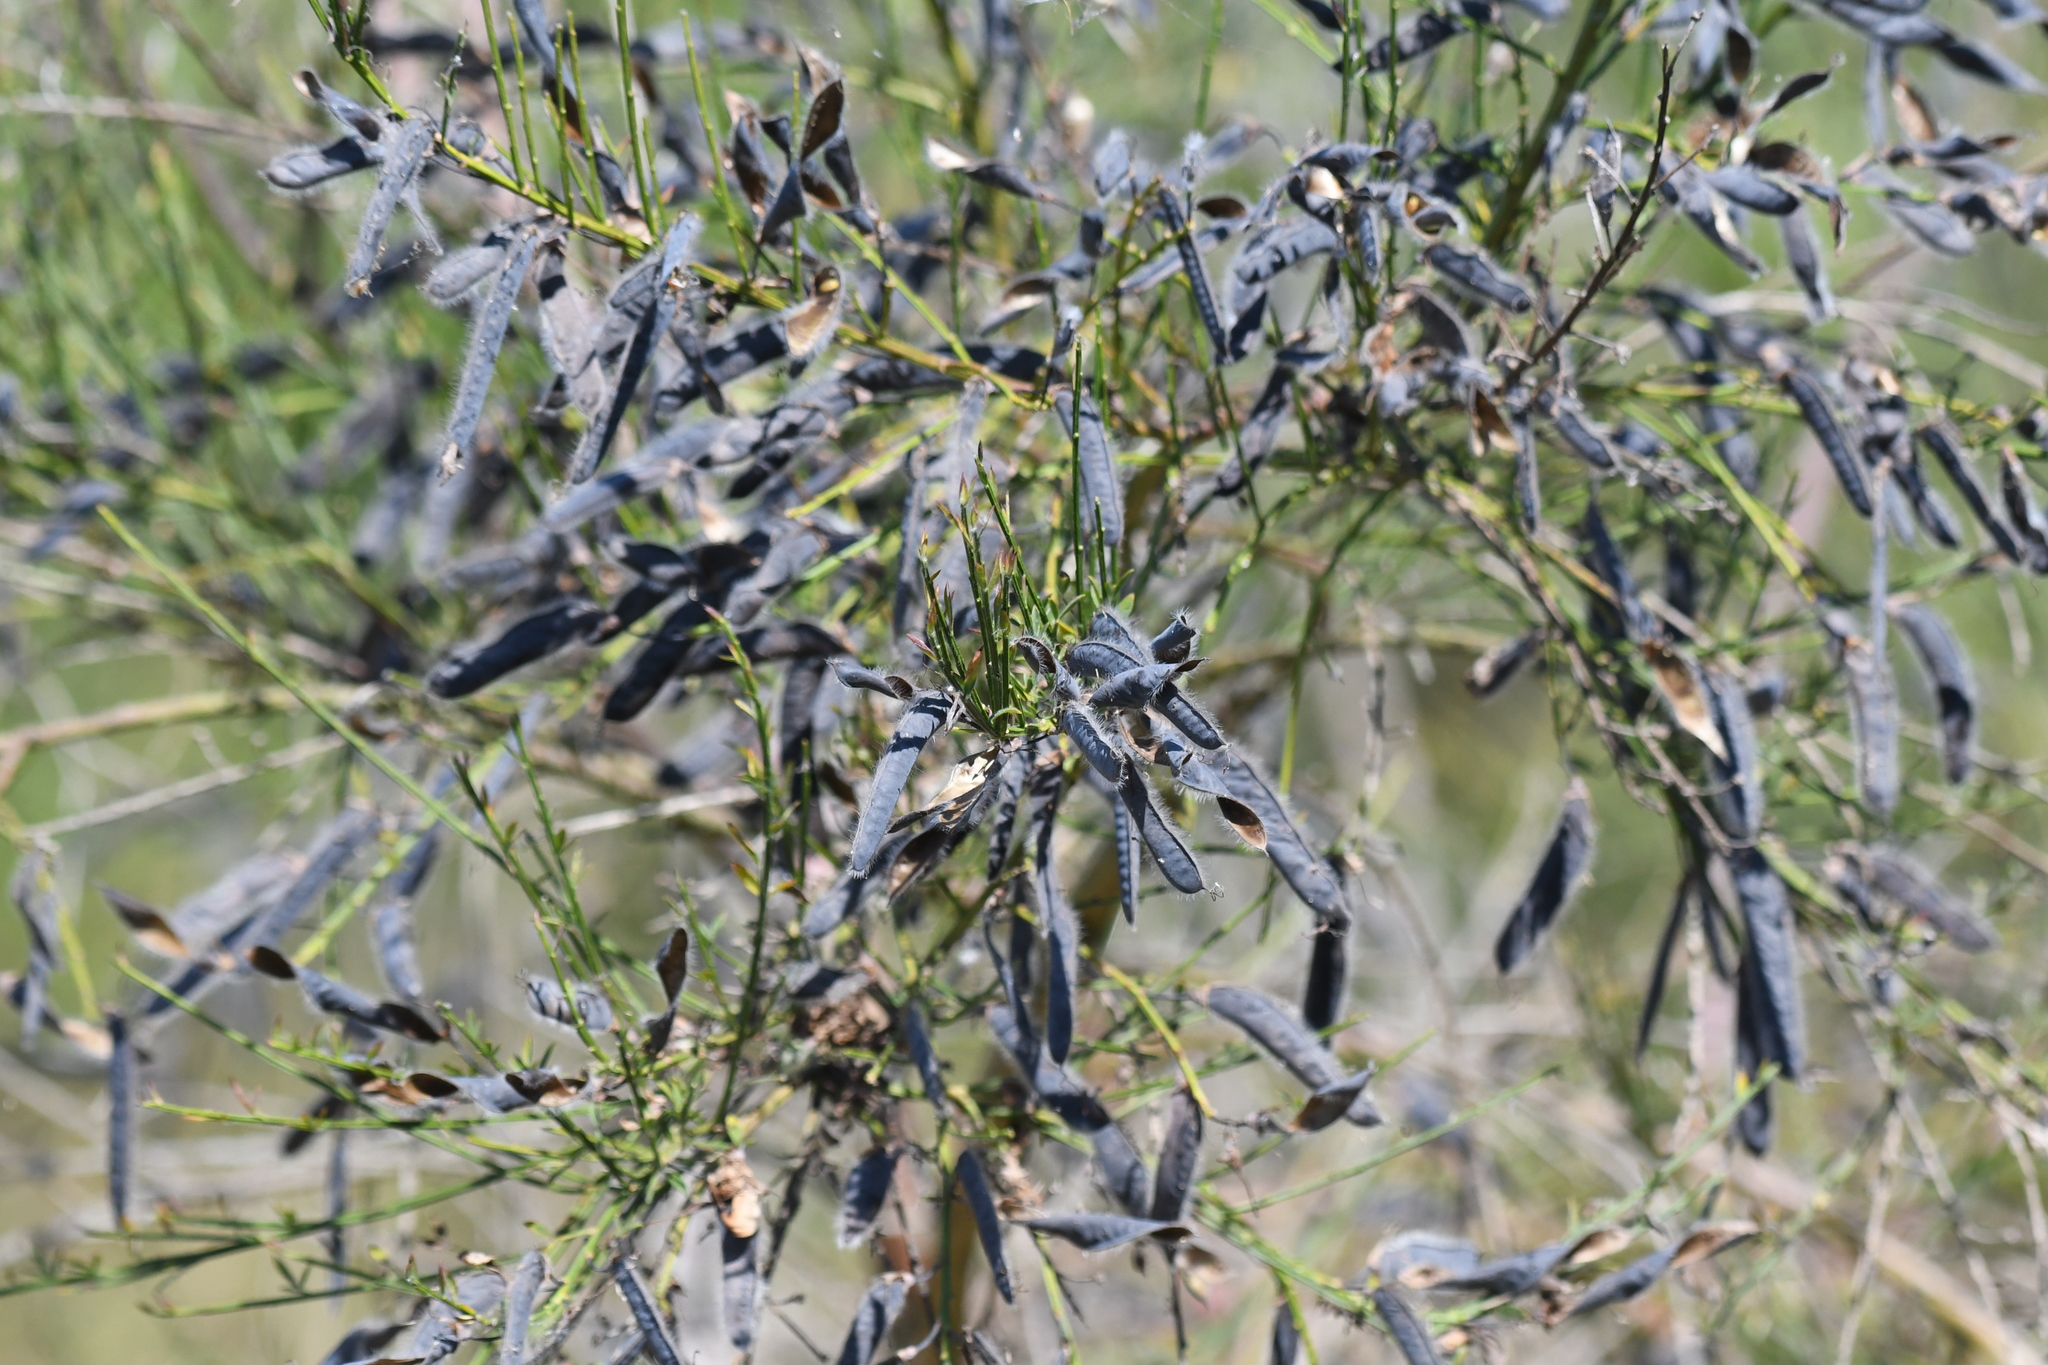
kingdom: Plantae
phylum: Tracheophyta
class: Magnoliopsida
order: Fabales
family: Fabaceae
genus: Cytisus
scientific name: Cytisus scoparius
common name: Scotch broom
